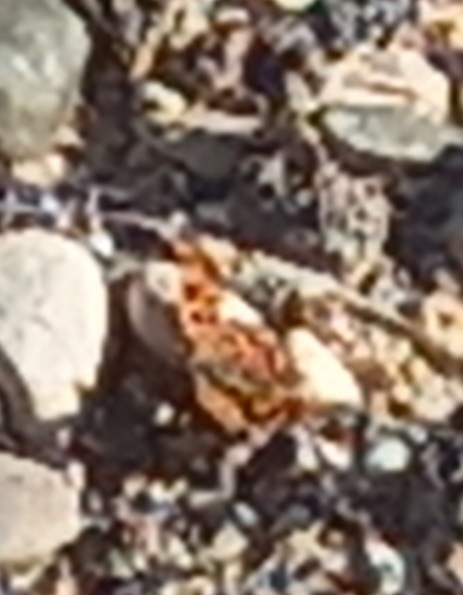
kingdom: Animalia
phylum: Arthropoda
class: Insecta
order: Lepidoptera
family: Nymphalidae
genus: Polygonia
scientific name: Polygonia c-album
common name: Comma
